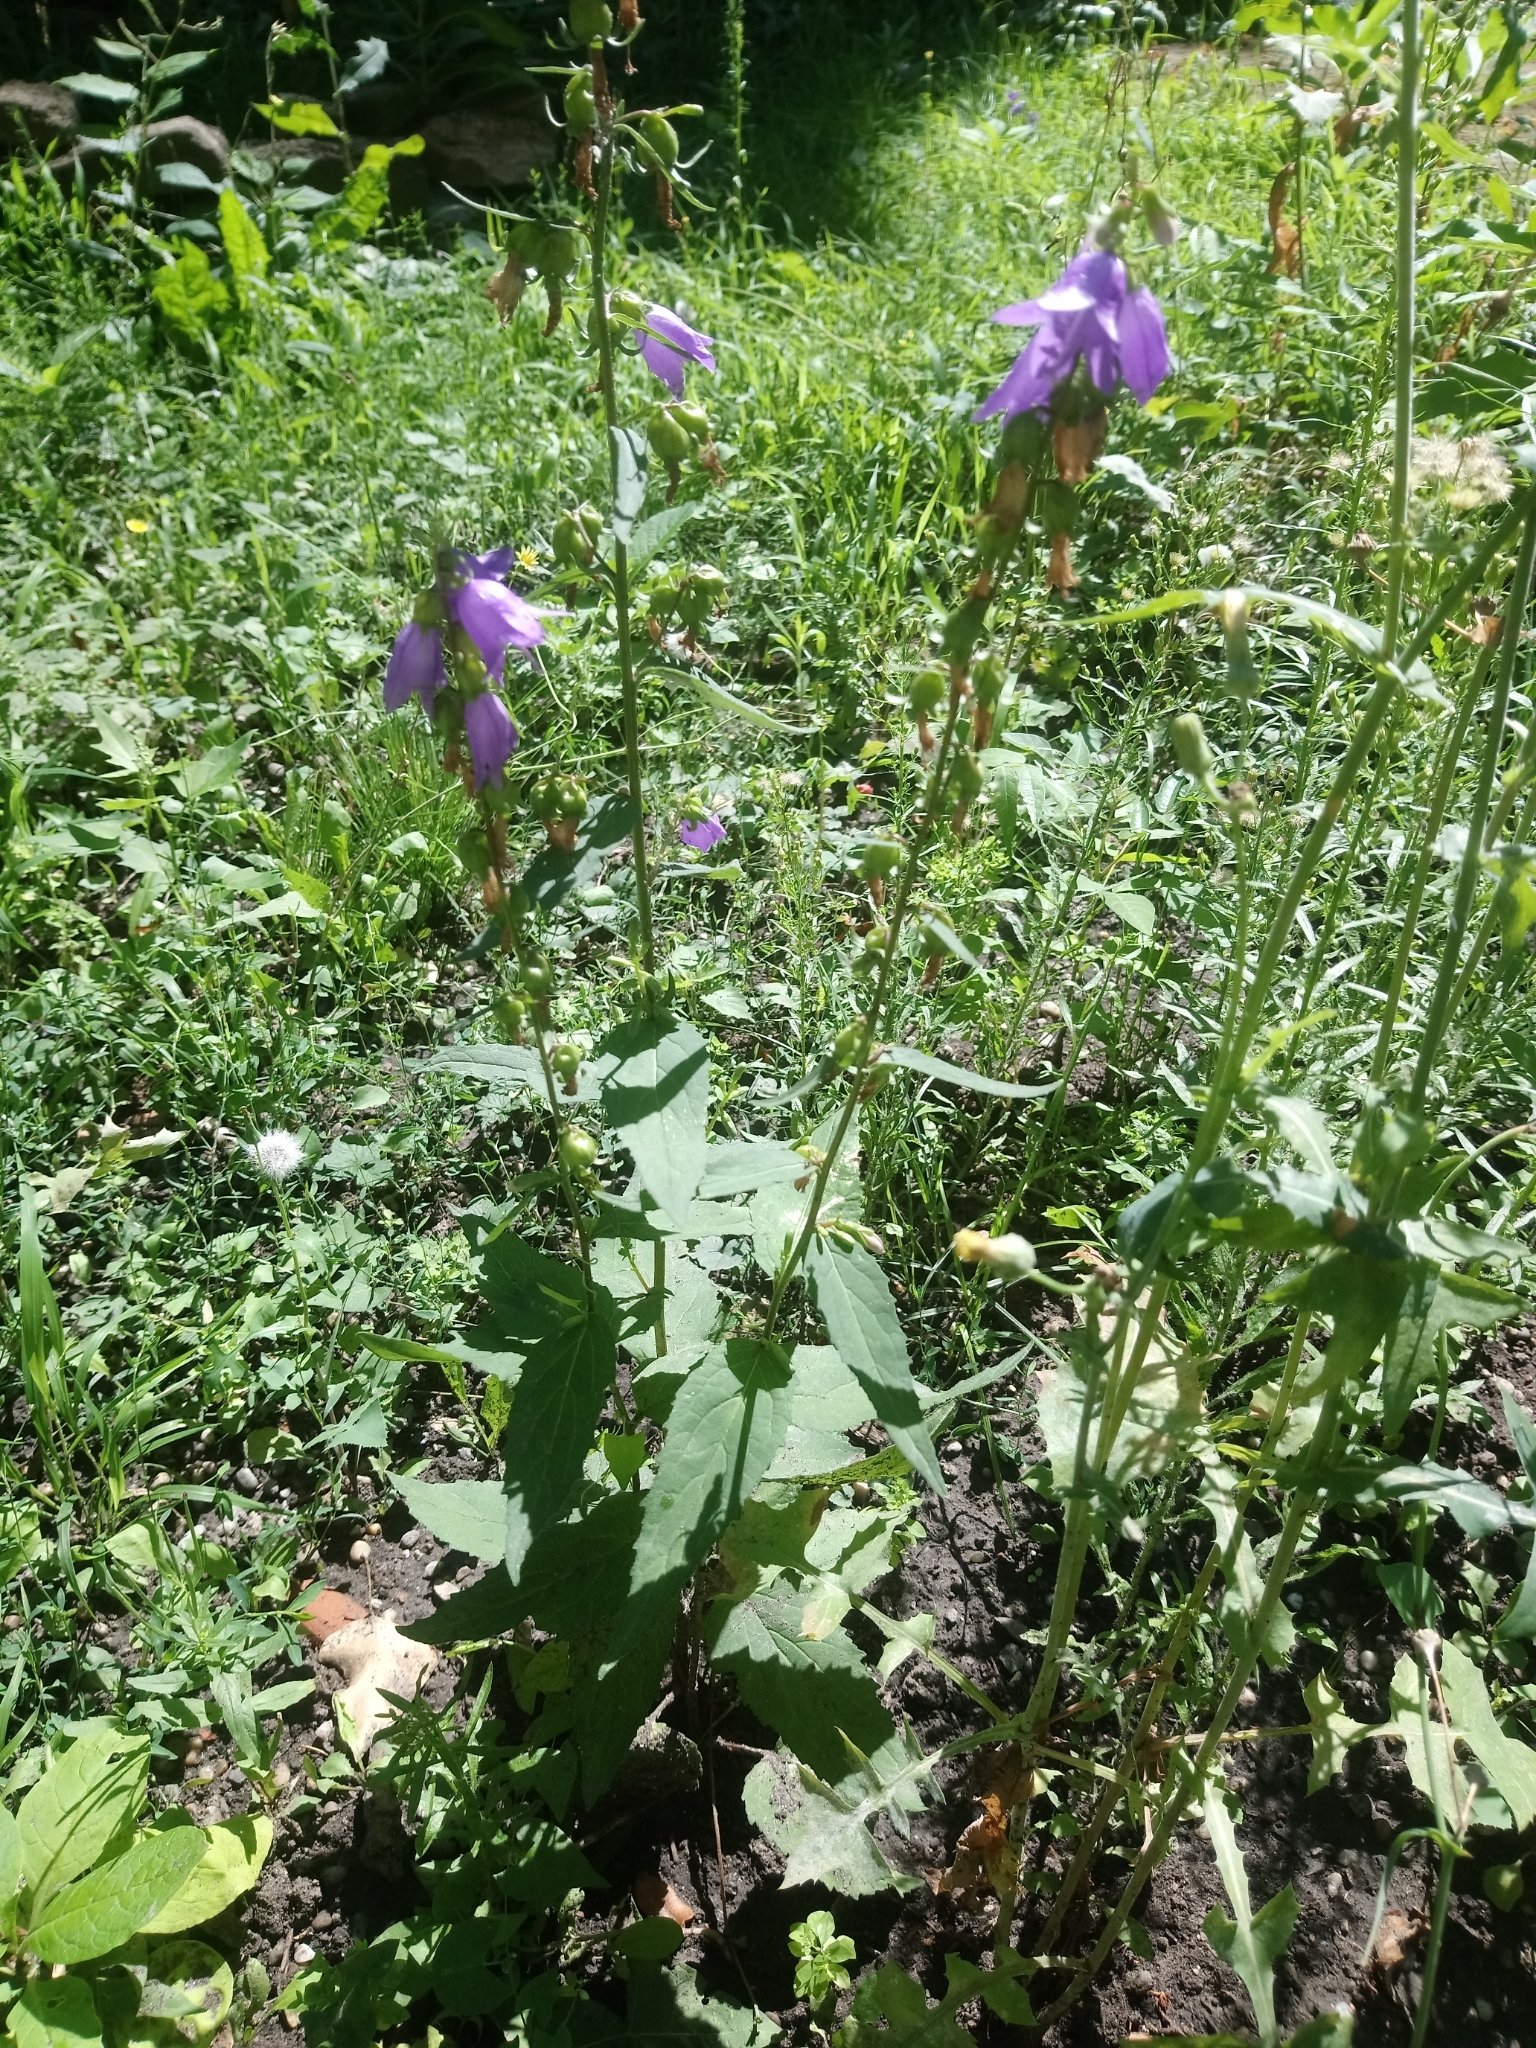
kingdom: Plantae
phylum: Tracheophyta
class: Magnoliopsida
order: Asterales
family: Campanulaceae
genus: Campanula
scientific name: Campanula rapunculoides
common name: Creeping bellflower
